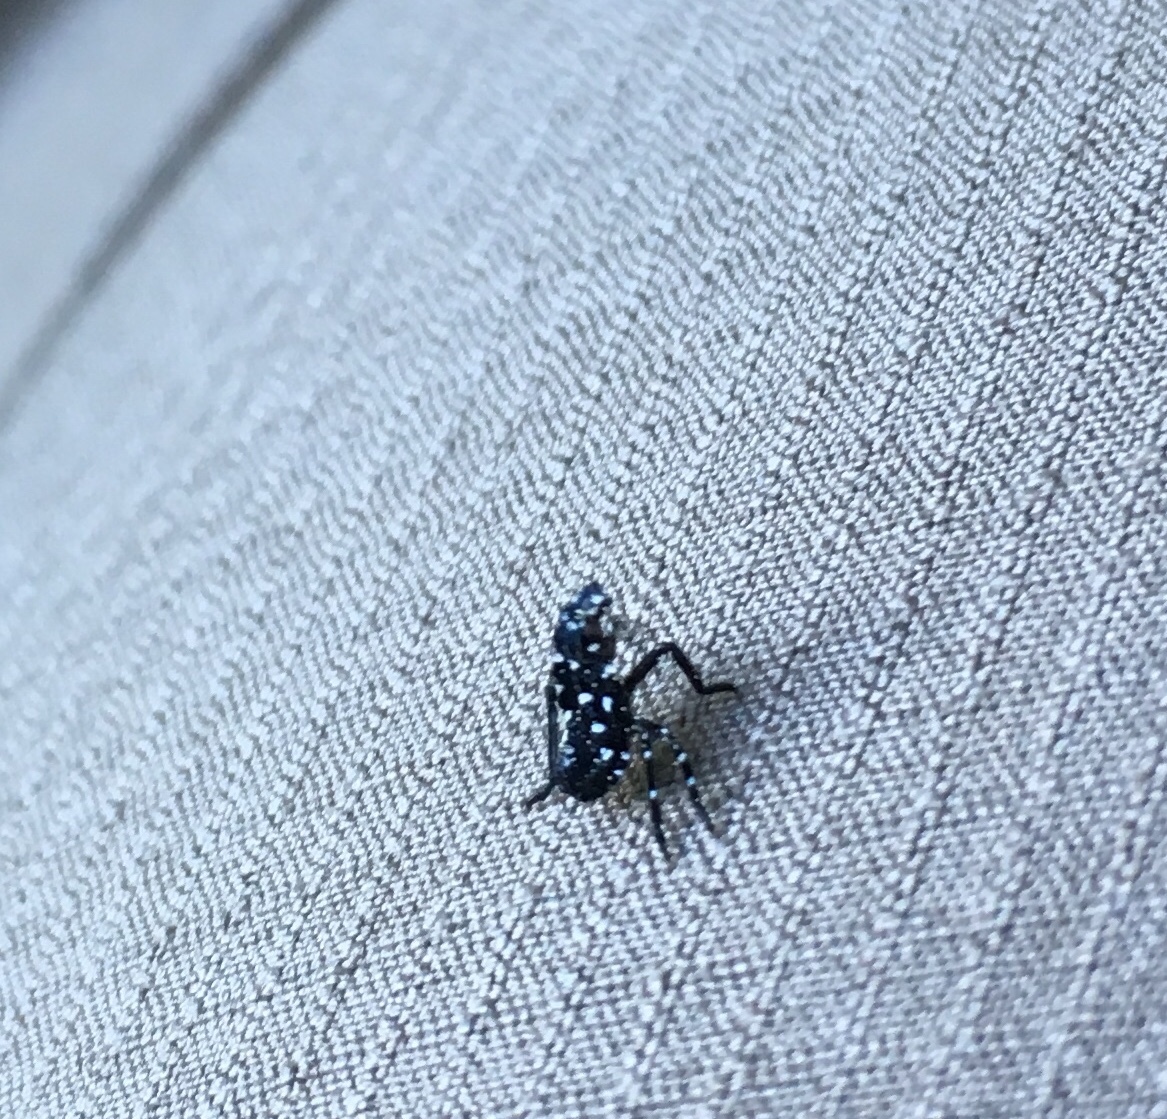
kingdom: Animalia
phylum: Arthropoda
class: Insecta
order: Hemiptera
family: Fulgoridae
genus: Lycorma
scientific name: Lycorma delicatula
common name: Spotted lanternfly
